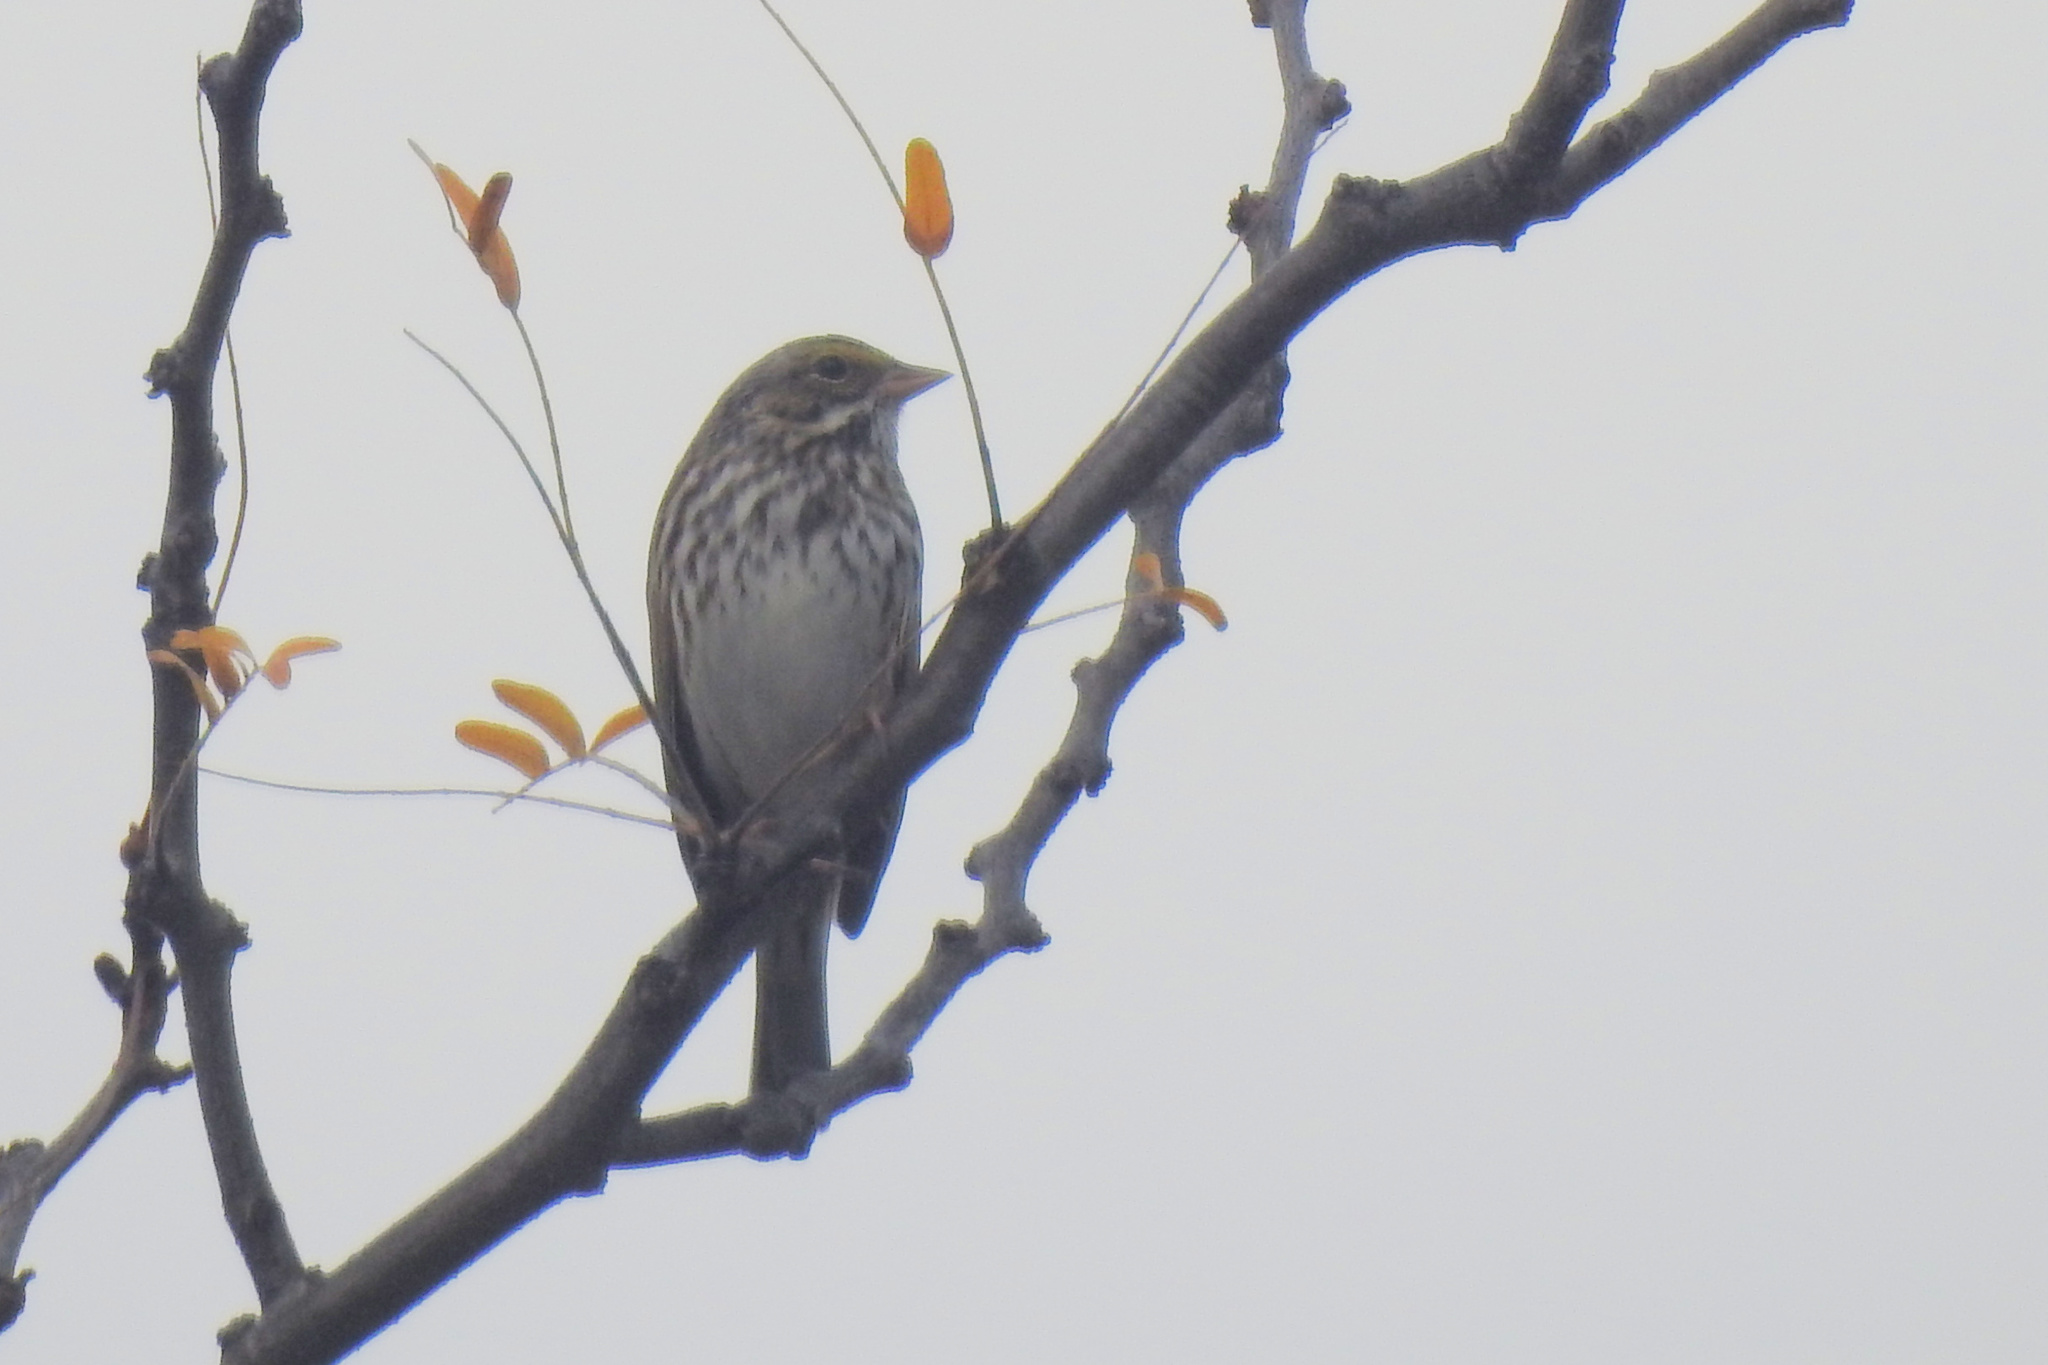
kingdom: Animalia
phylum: Chordata
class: Aves
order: Passeriformes
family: Passerellidae
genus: Passerculus
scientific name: Passerculus sandwichensis
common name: Savannah sparrow
